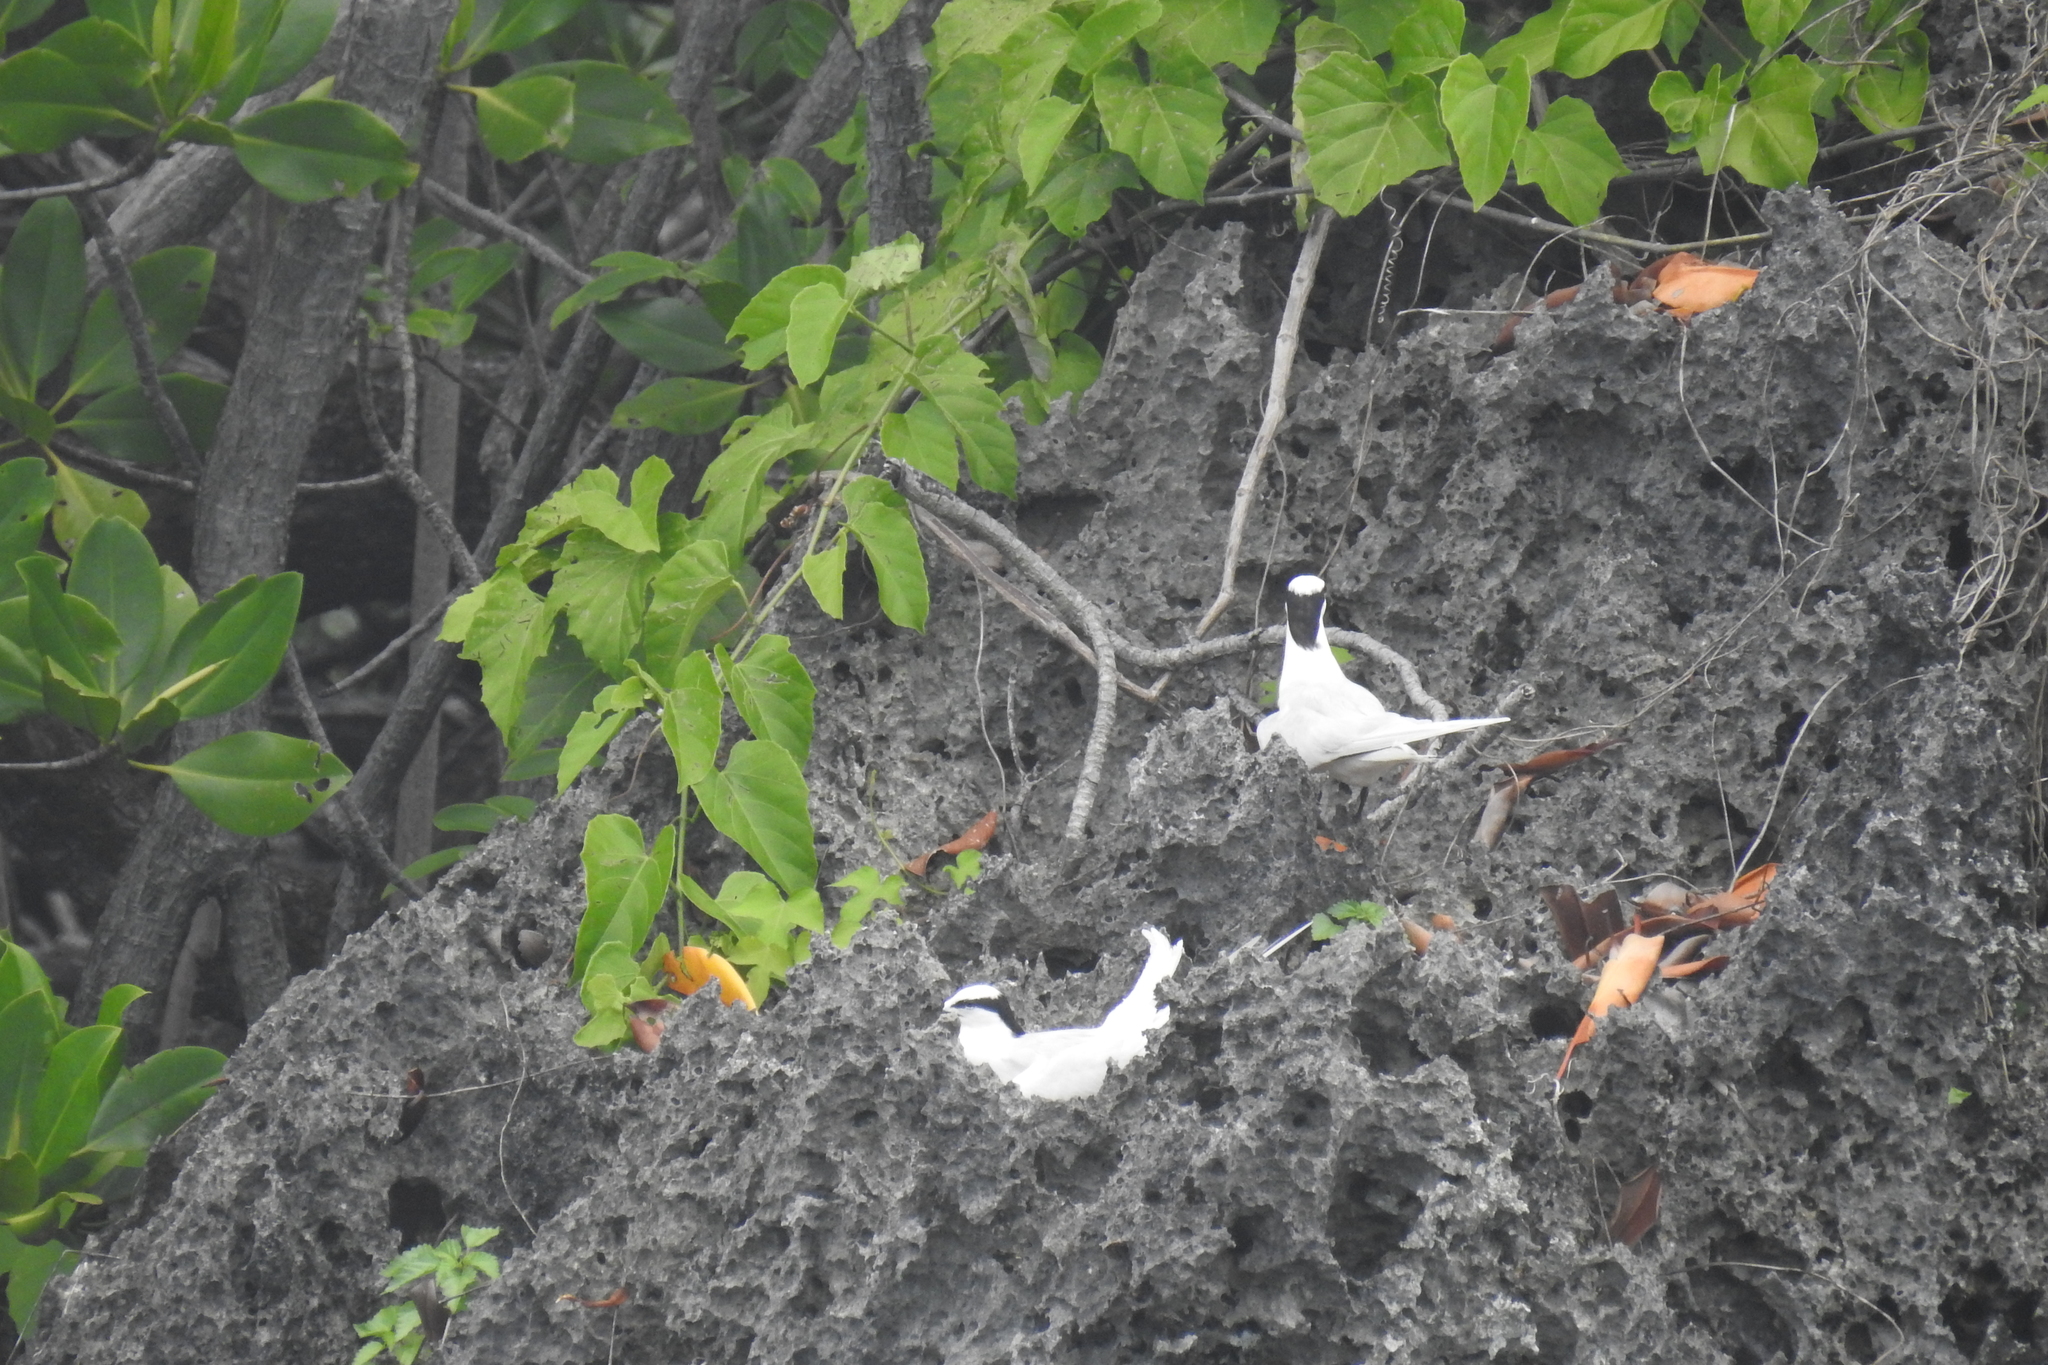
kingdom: Animalia
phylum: Chordata
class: Aves
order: Charadriiformes
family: Laridae
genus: Sterna
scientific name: Sterna sumatrana
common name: Black-naped tern
